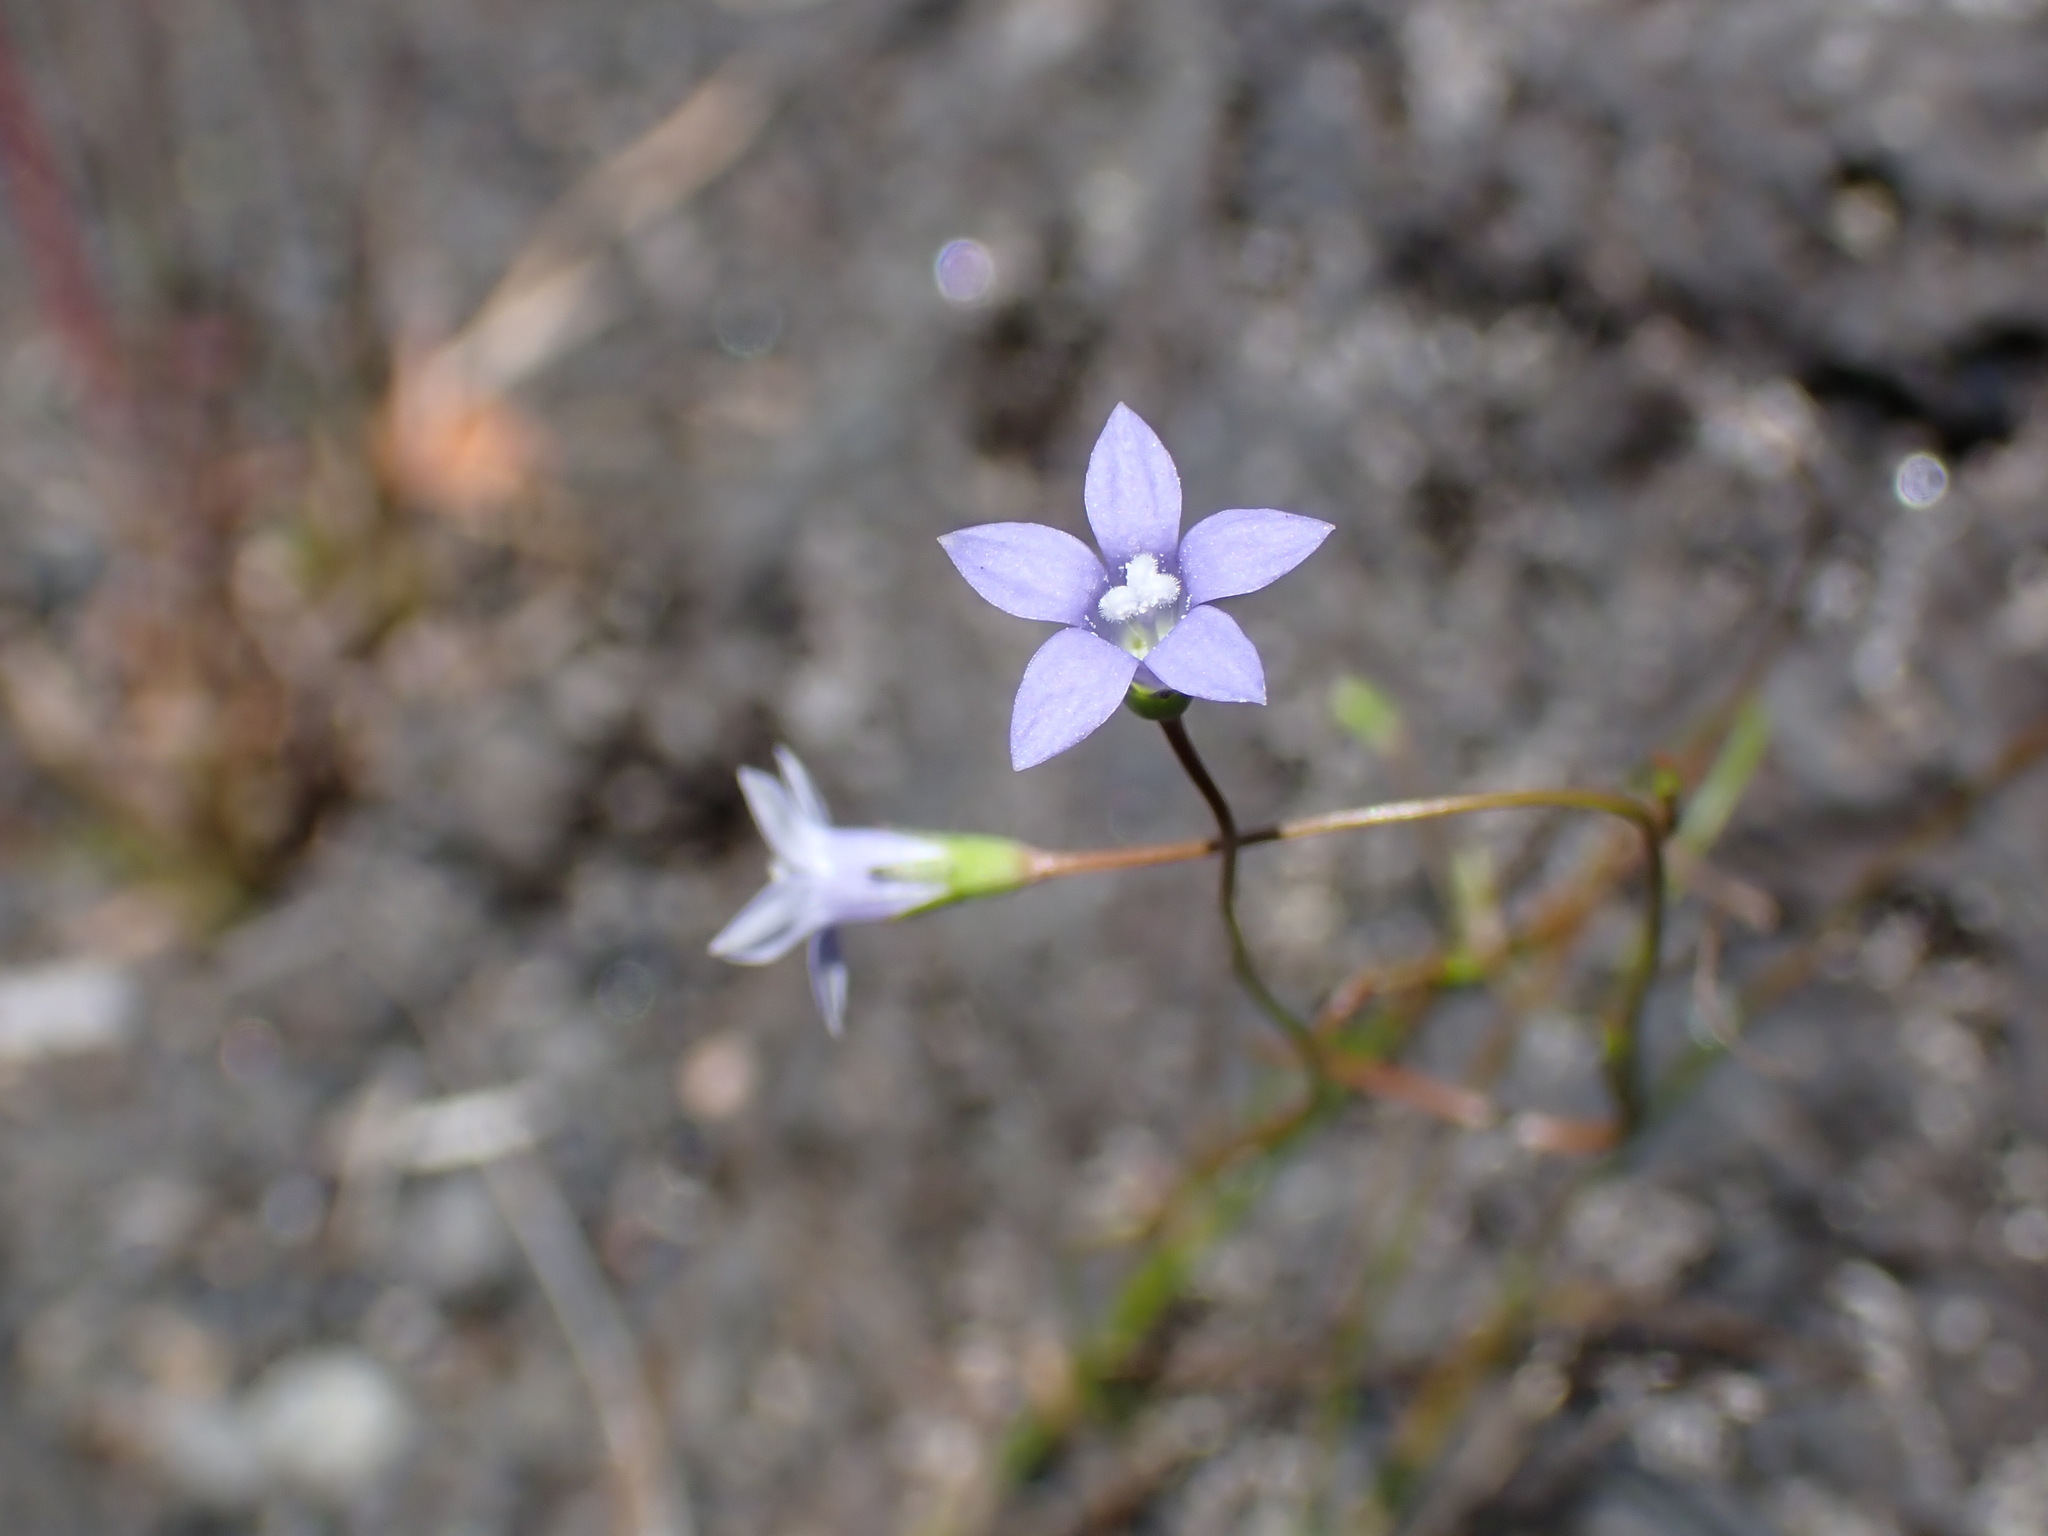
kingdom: Plantae
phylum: Tracheophyta
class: Magnoliopsida
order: Asterales
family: Campanulaceae
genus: Wahlenbergia
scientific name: Wahlenbergia gracilis
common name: Harebell
